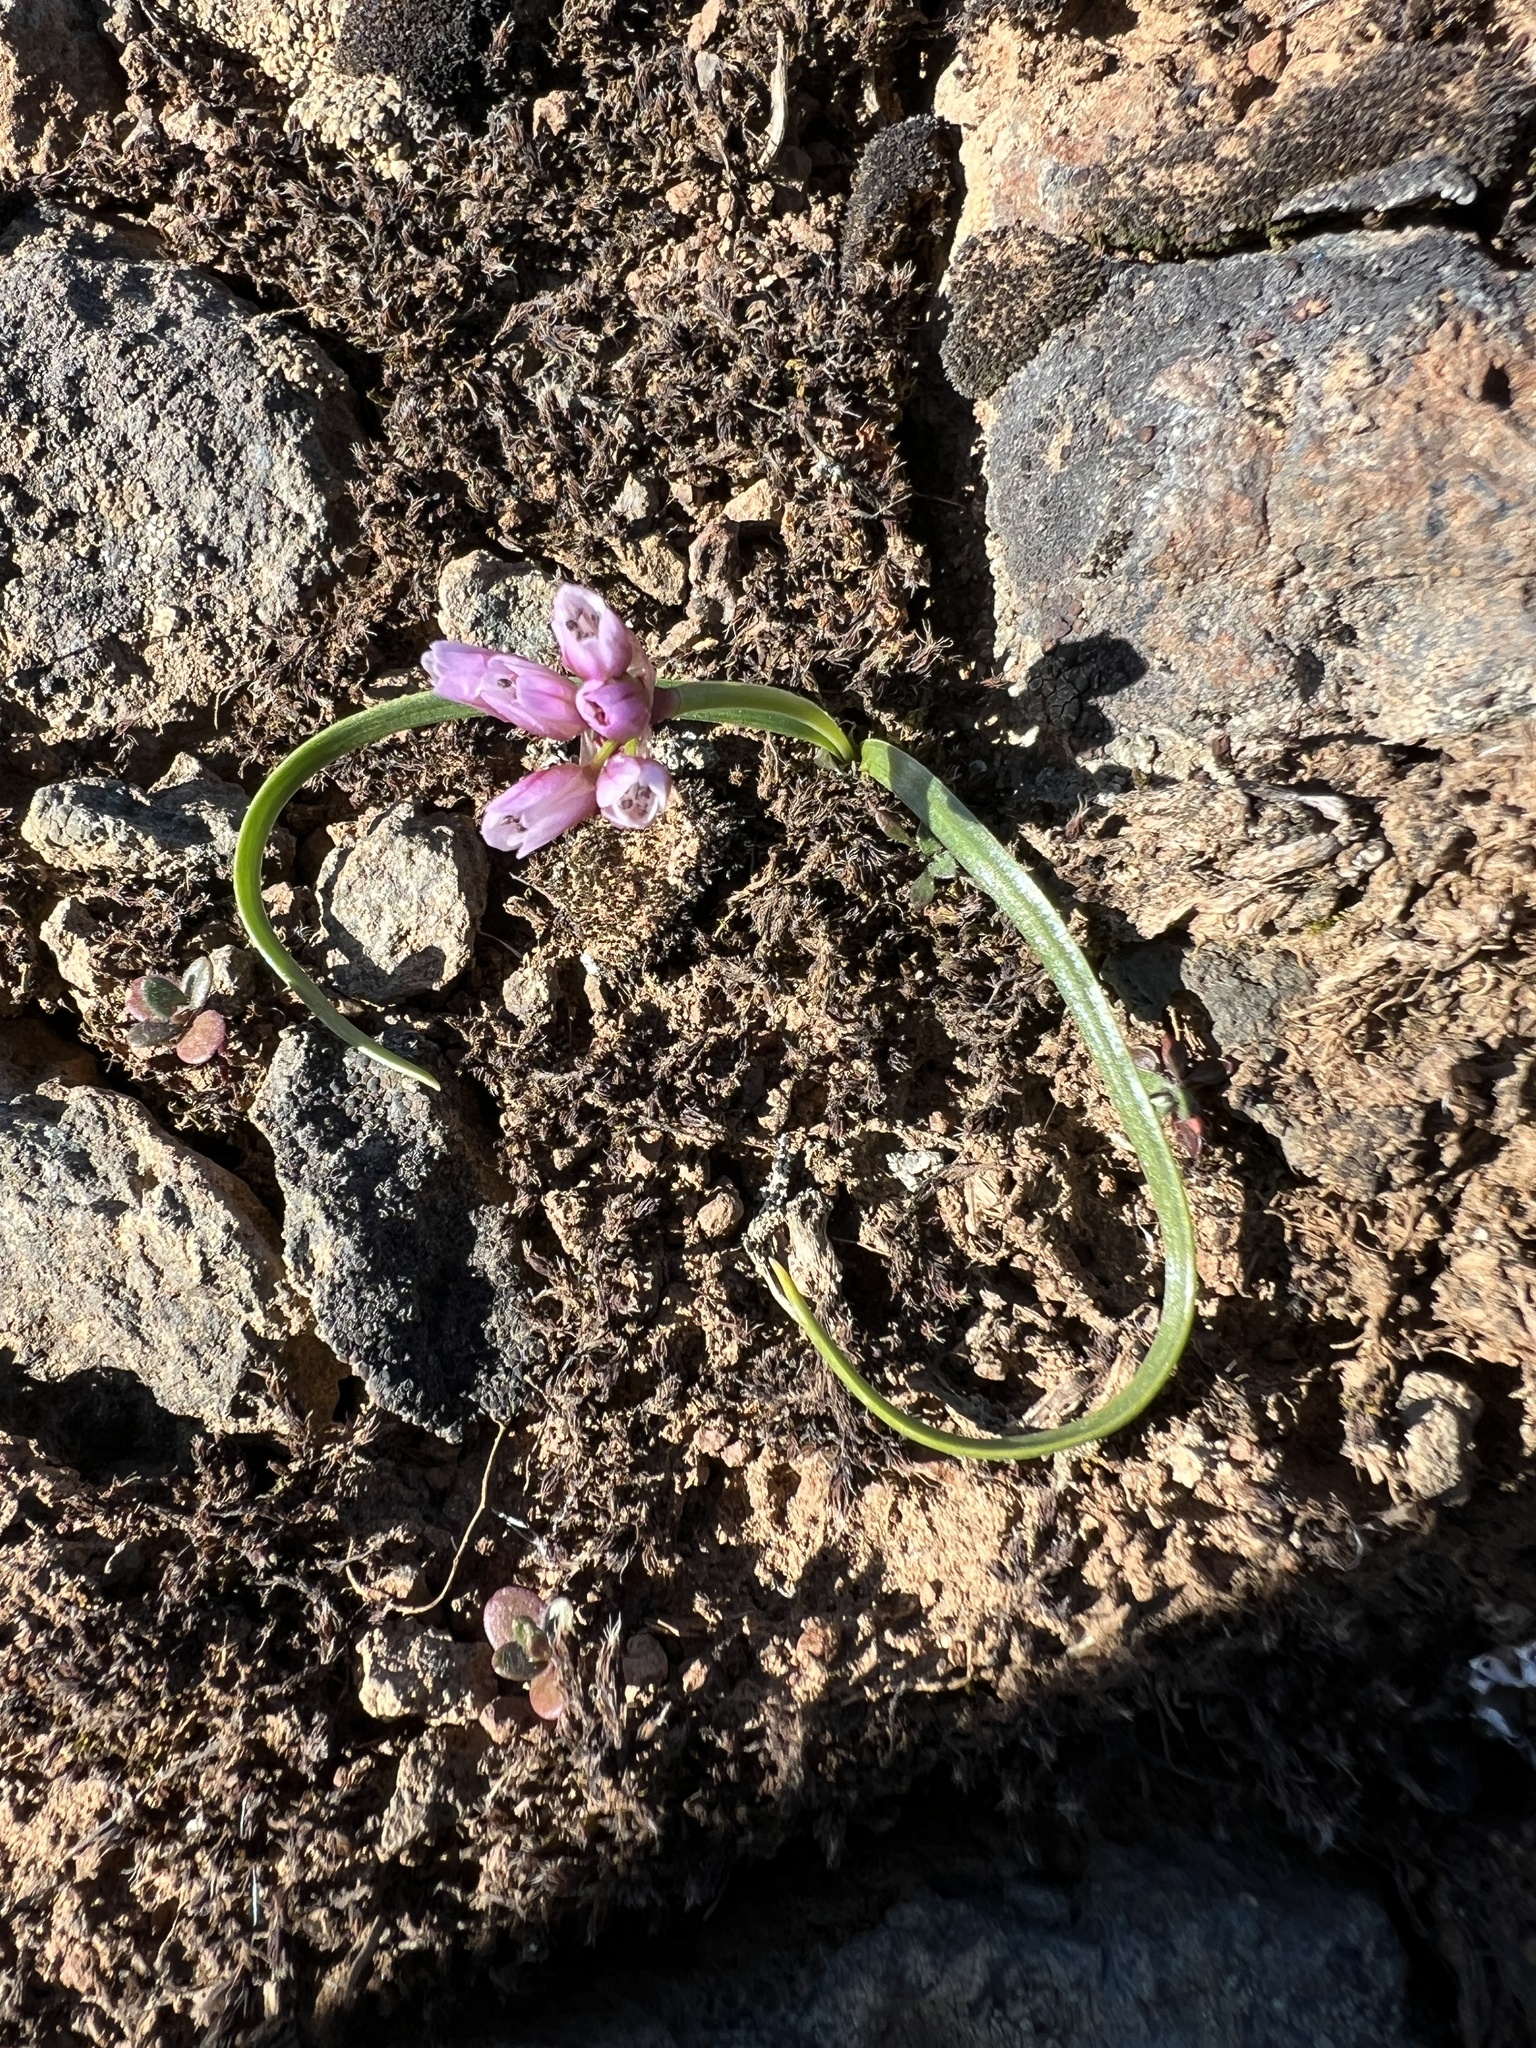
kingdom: Plantae
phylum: Tracheophyta
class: Liliopsida
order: Asparagales
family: Amaryllidaceae
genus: Allium
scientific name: Allium scilloides
